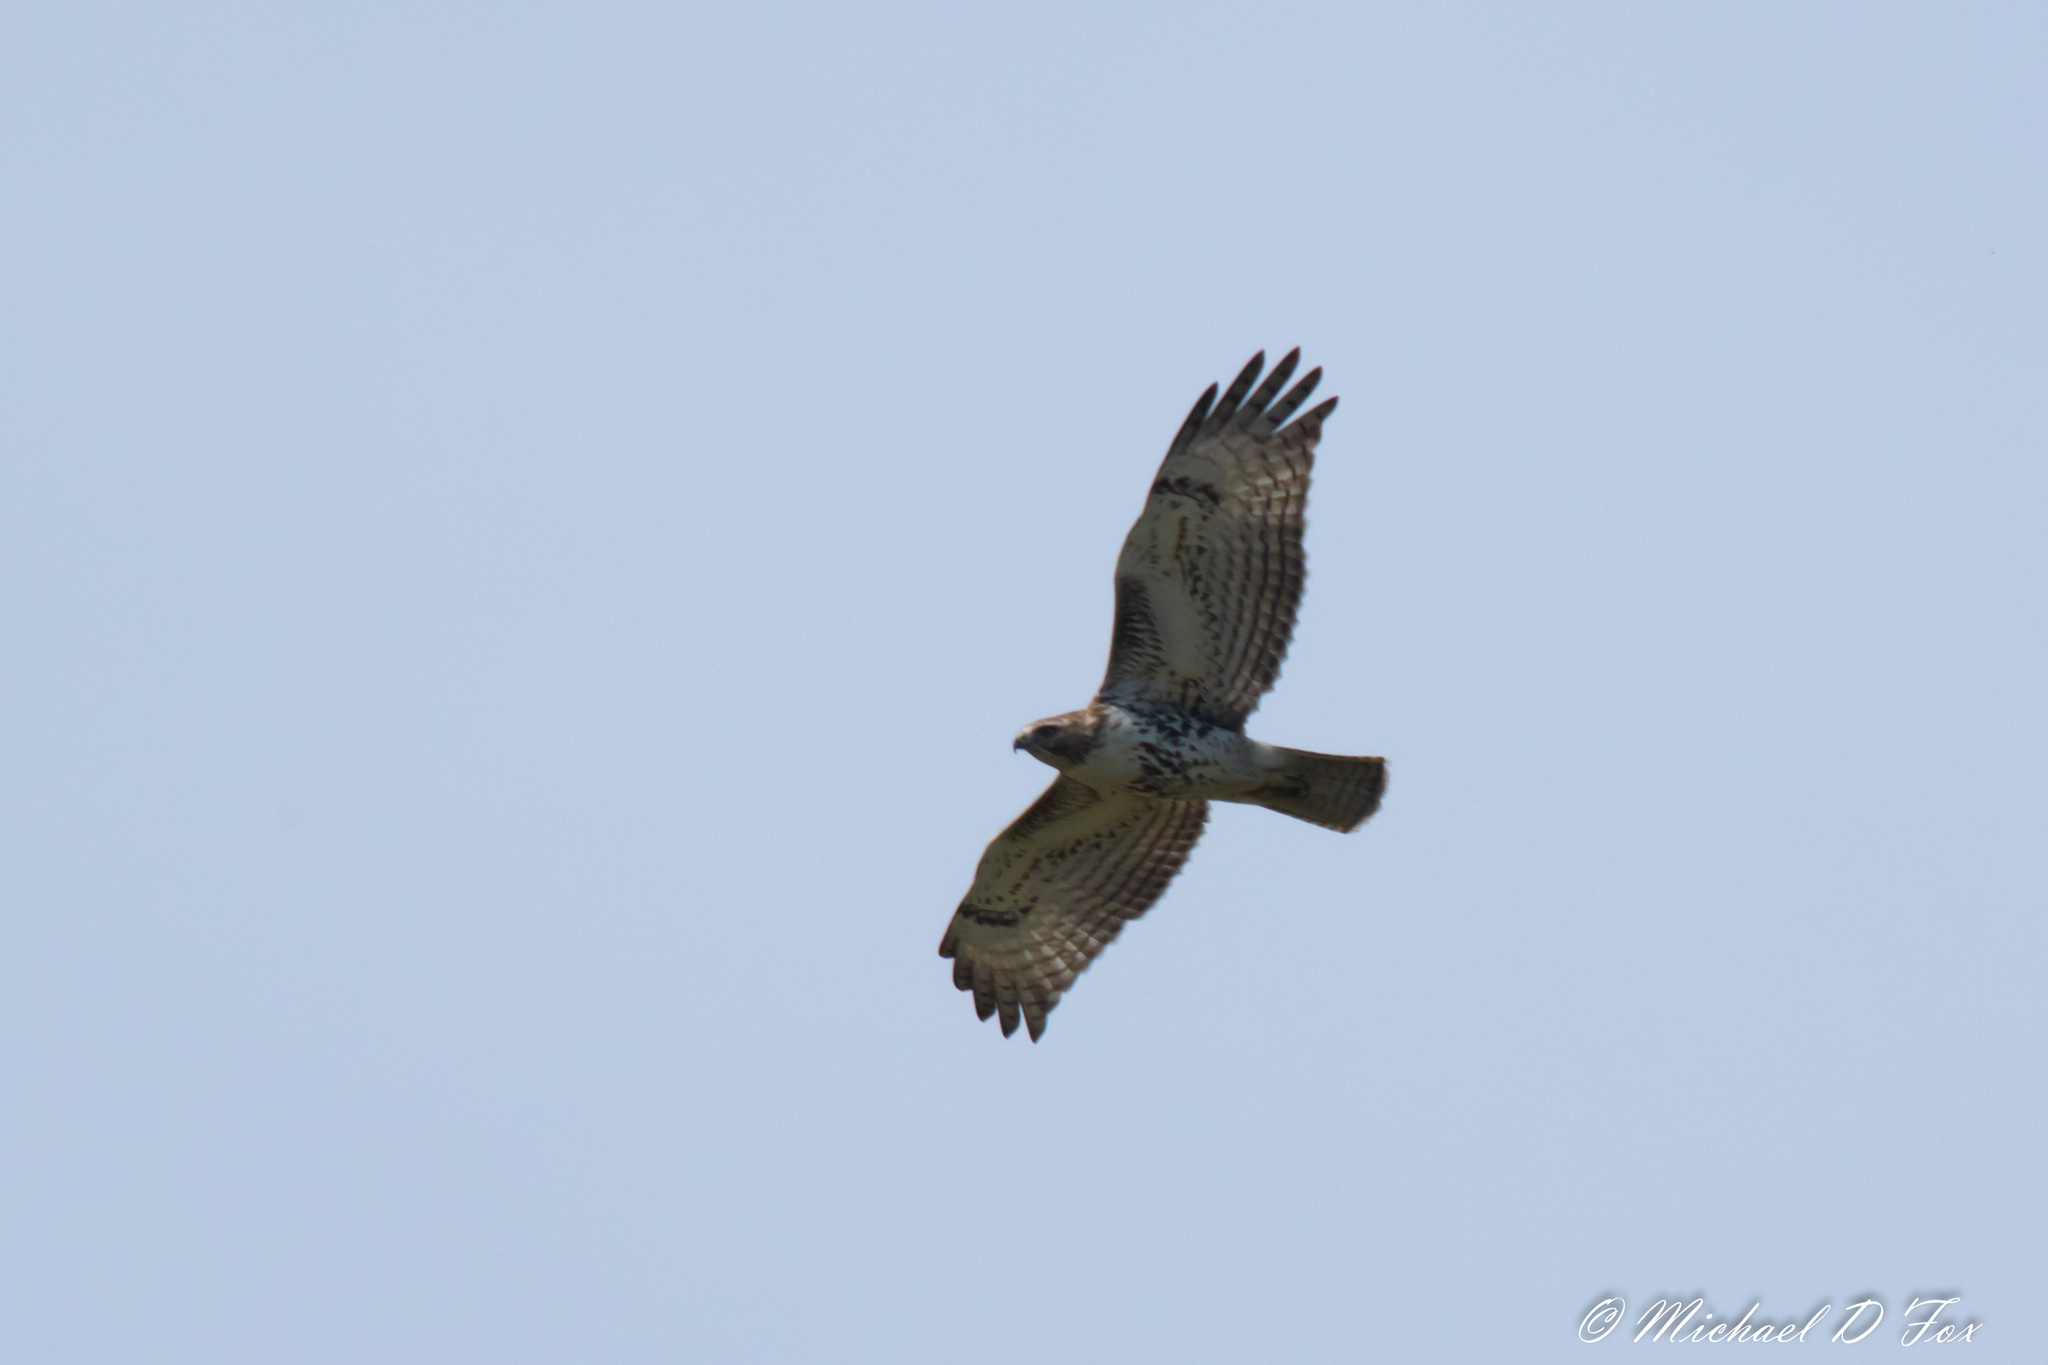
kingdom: Animalia
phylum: Chordata
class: Aves
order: Accipitriformes
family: Accipitridae
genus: Buteo
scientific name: Buteo jamaicensis
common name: Red-tailed hawk
